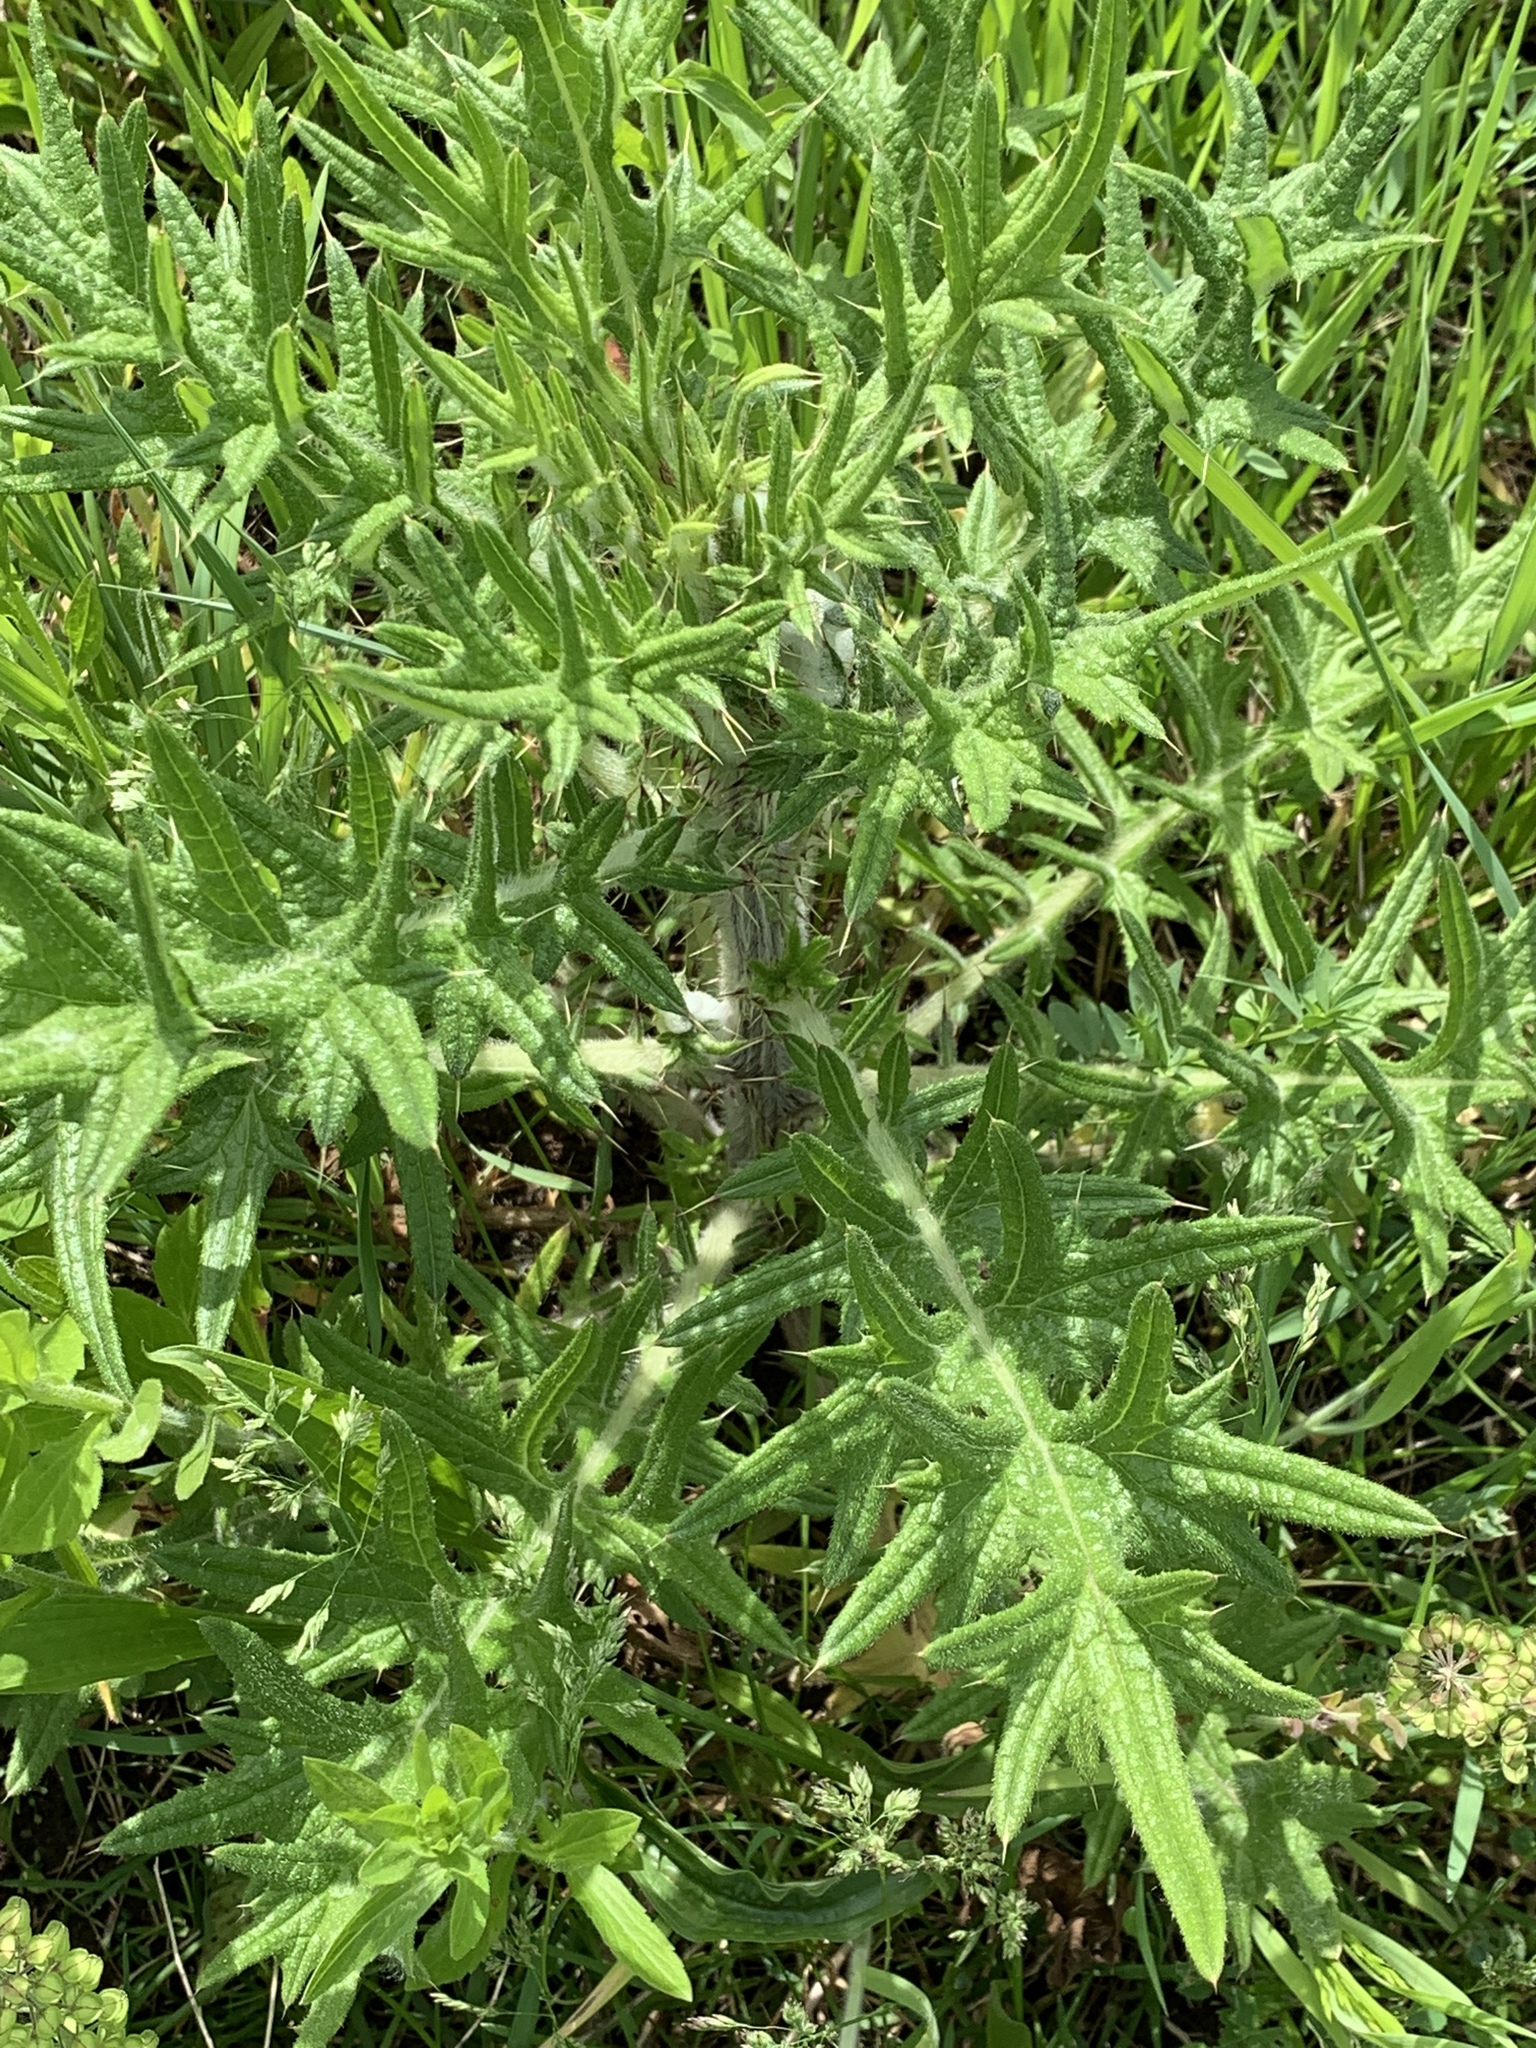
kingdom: Plantae
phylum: Tracheophyta
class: Magnoliopsida
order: Asterales
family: Asteraceae
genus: Cirsium
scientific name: Cirsium vulgare
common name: Bull thistle
